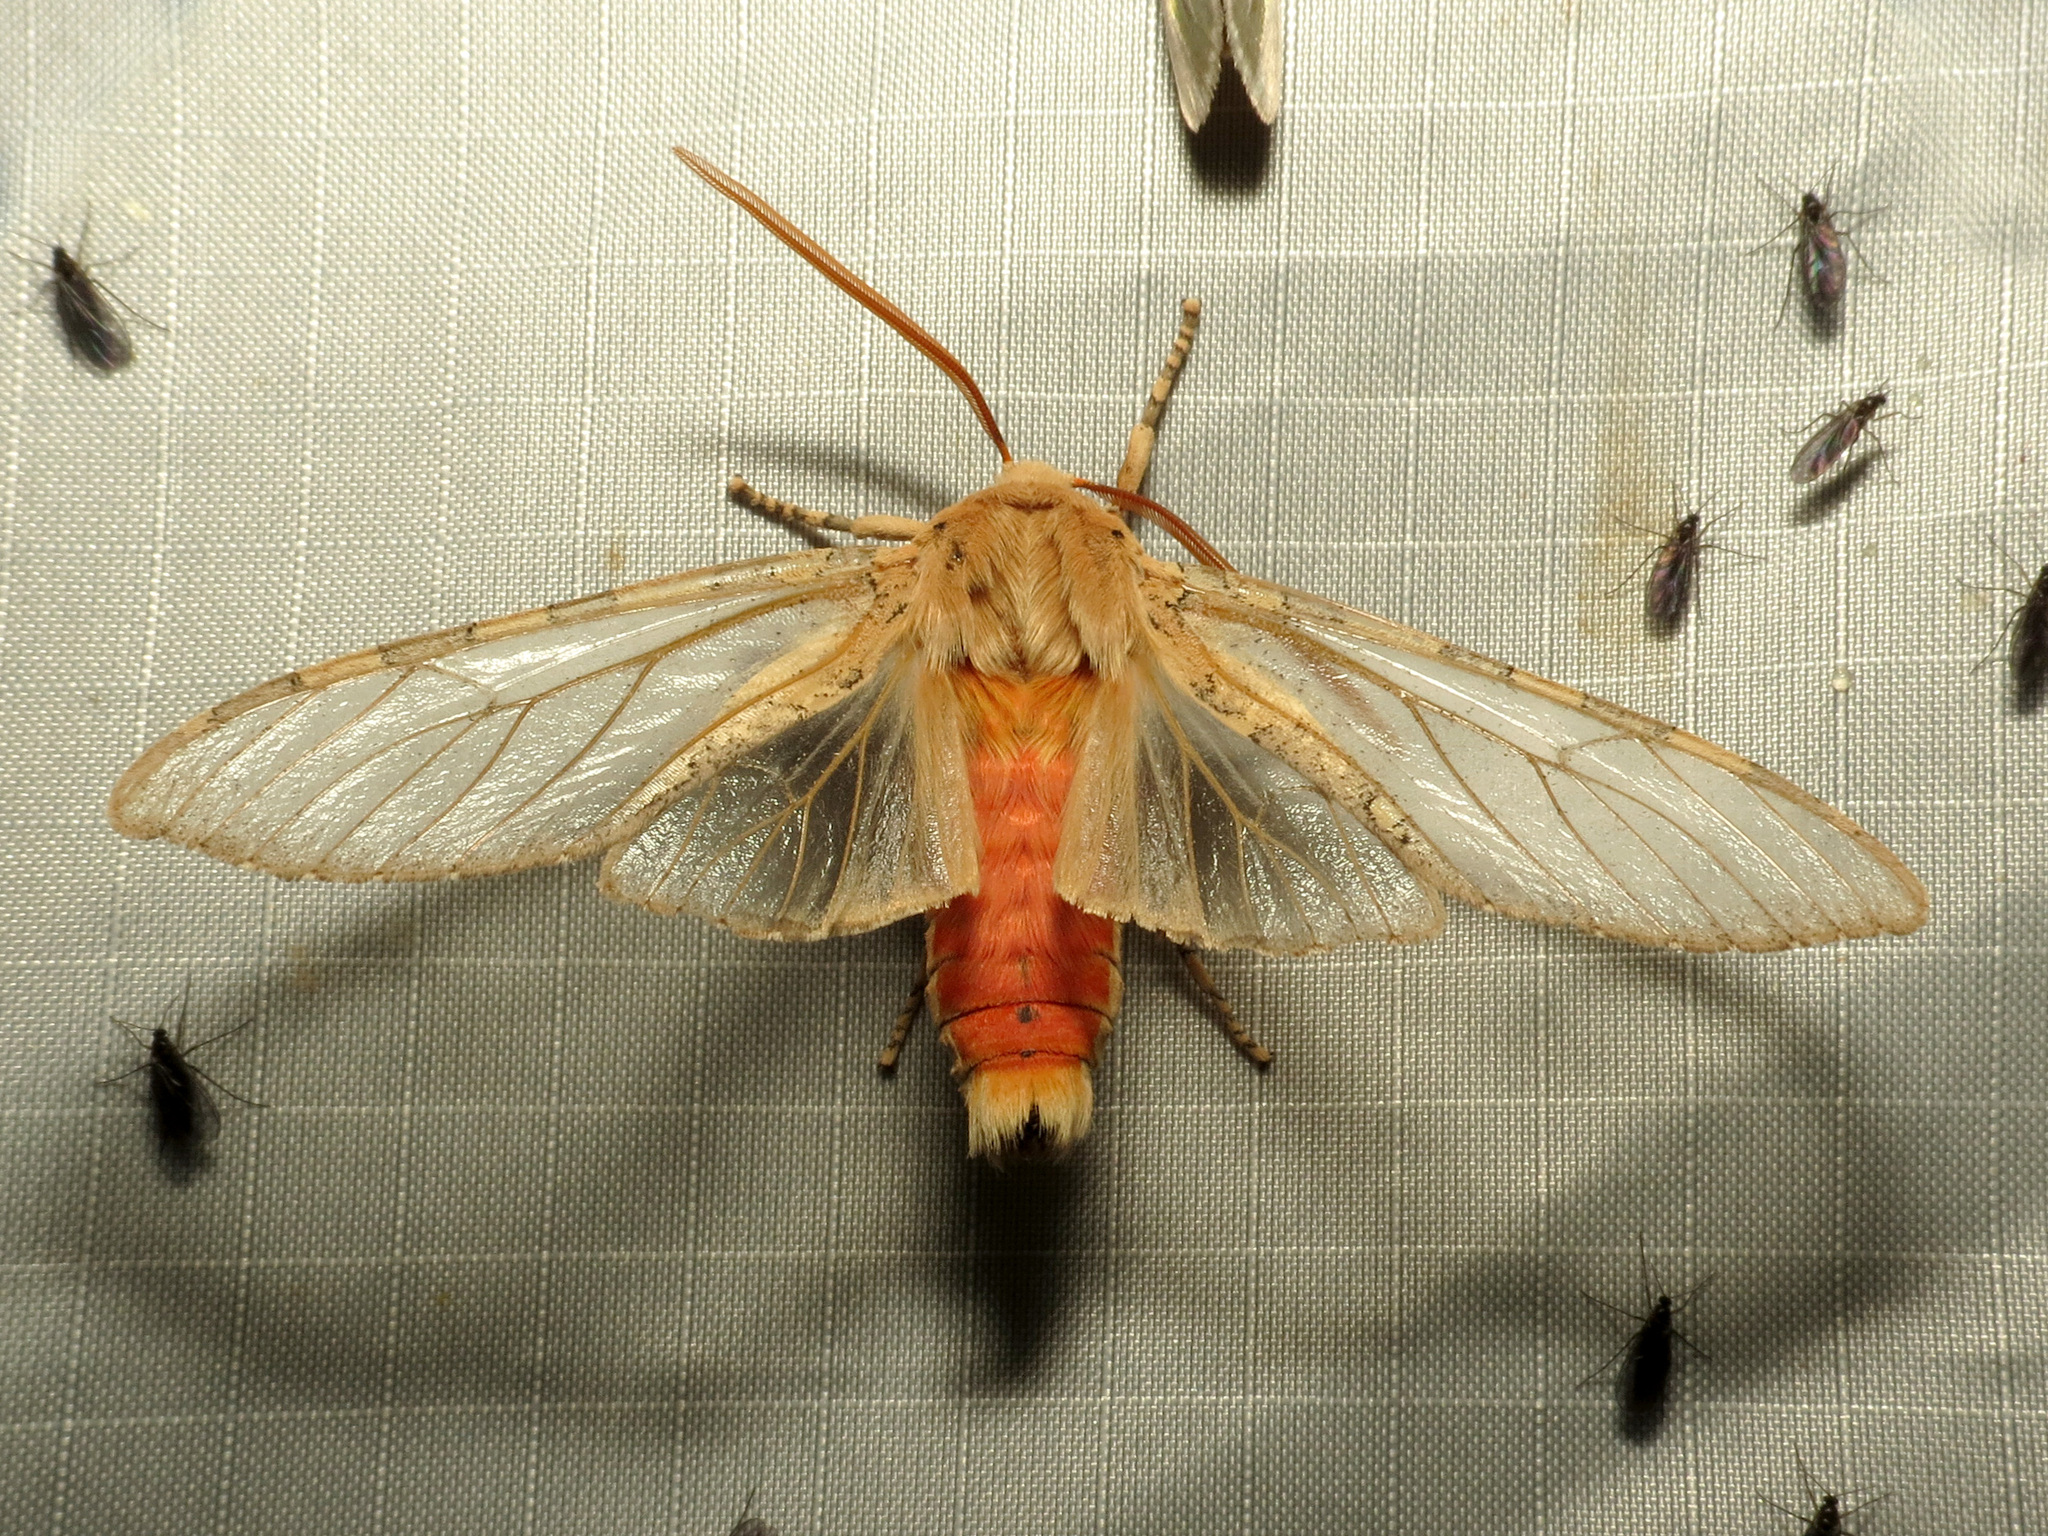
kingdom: Animalia
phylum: Arthropoda
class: Insecta
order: Lepidoptera
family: Erebidae
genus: Hemihyalea
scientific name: Hemihyalea edwardsii
